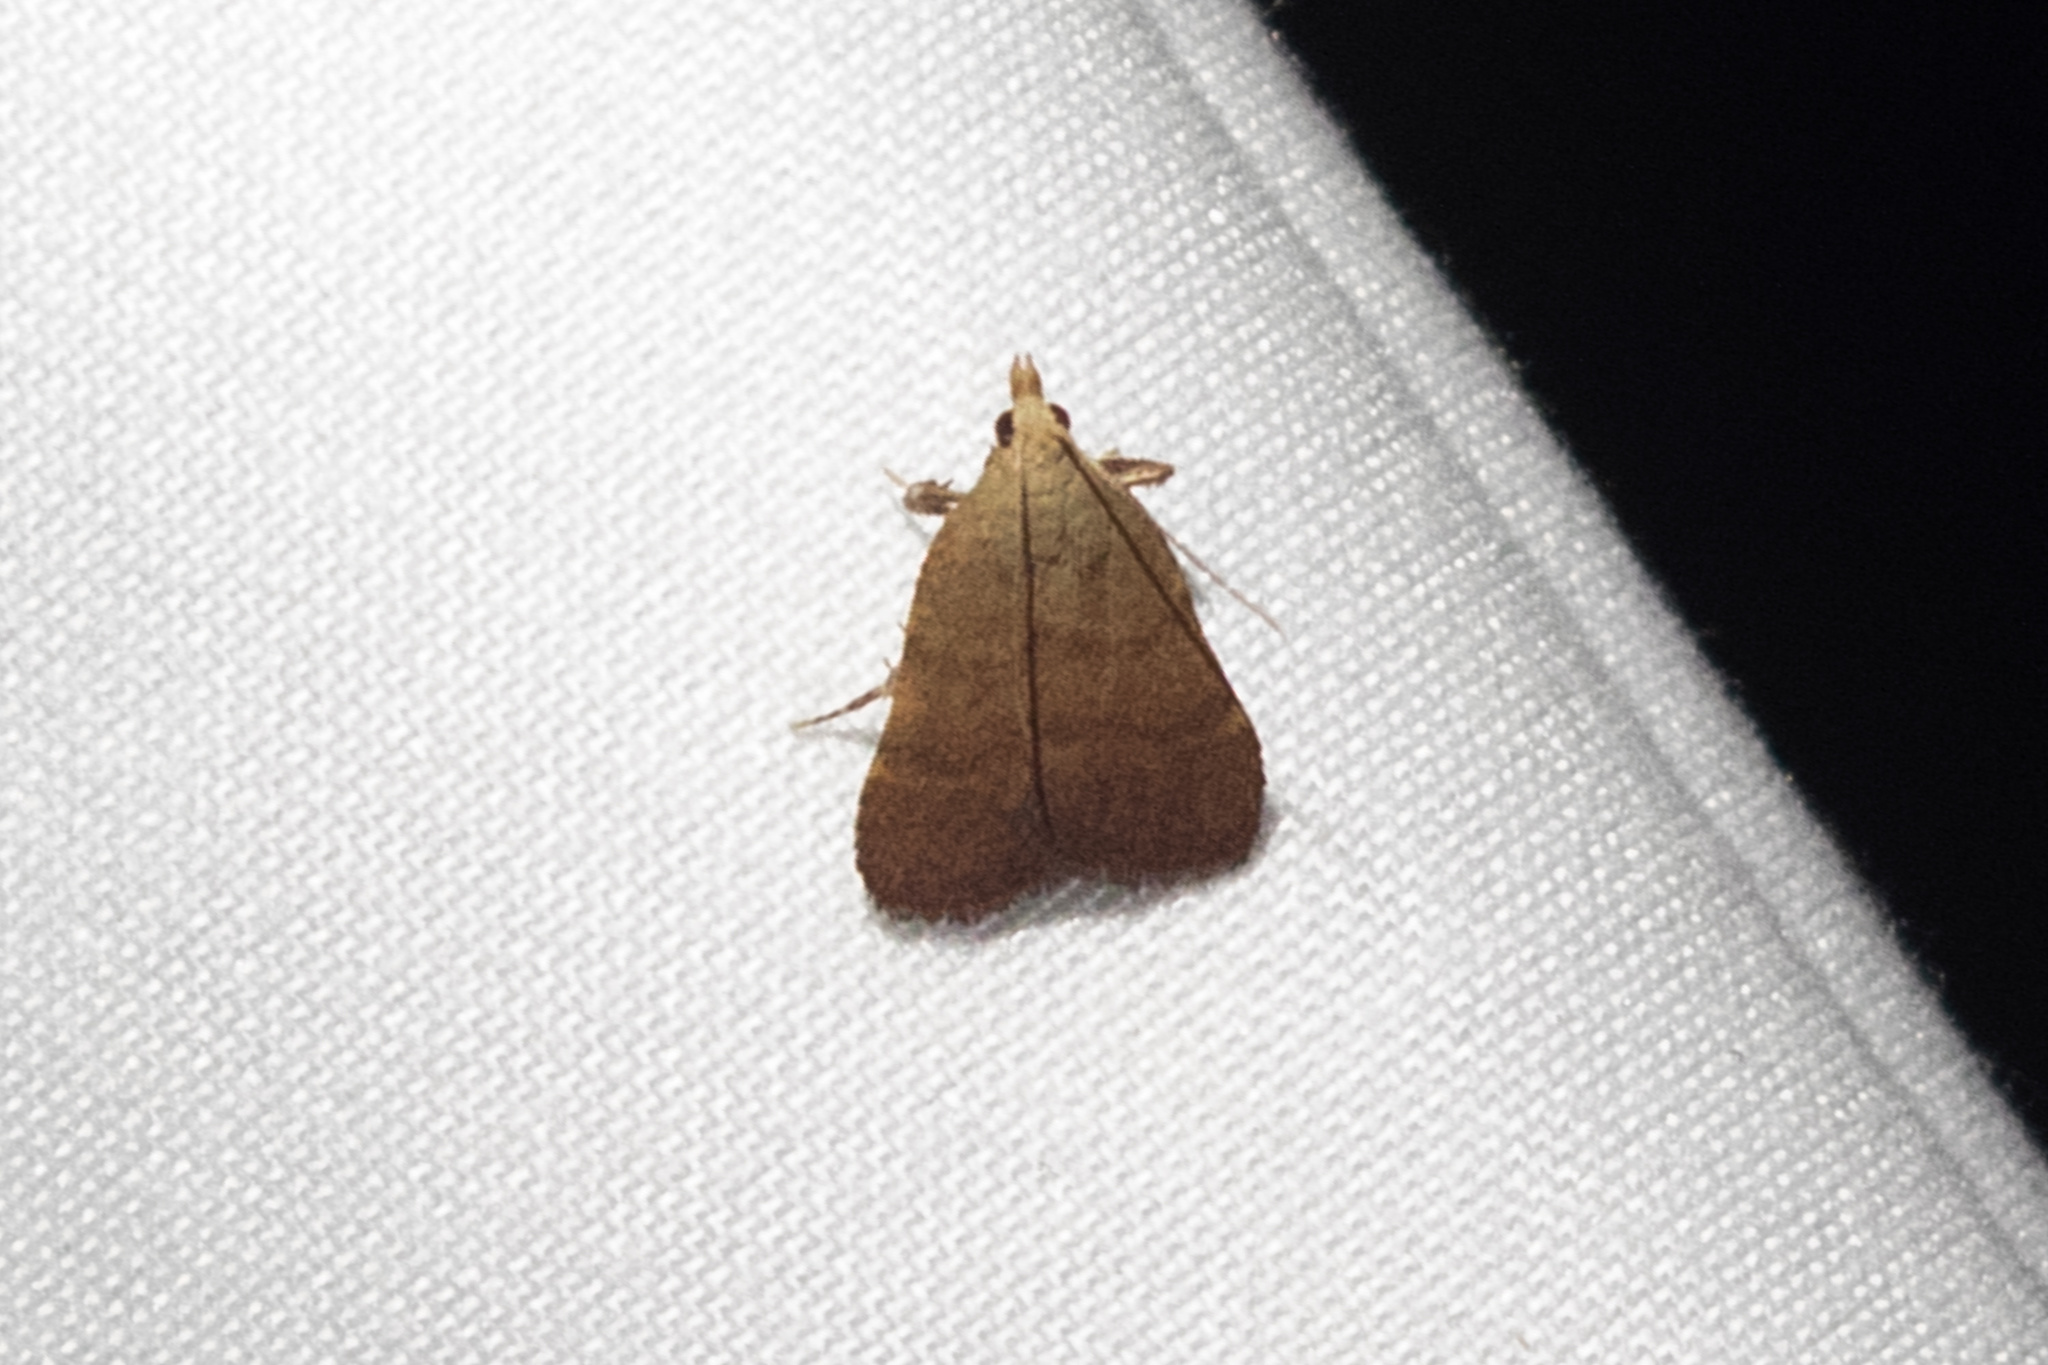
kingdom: Animalia
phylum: Arthropoda
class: Insecta
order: Lepidoptera
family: Pyralidae
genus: Condylolomia
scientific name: Condylolomia participialis
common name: Drab condylolomia moth
